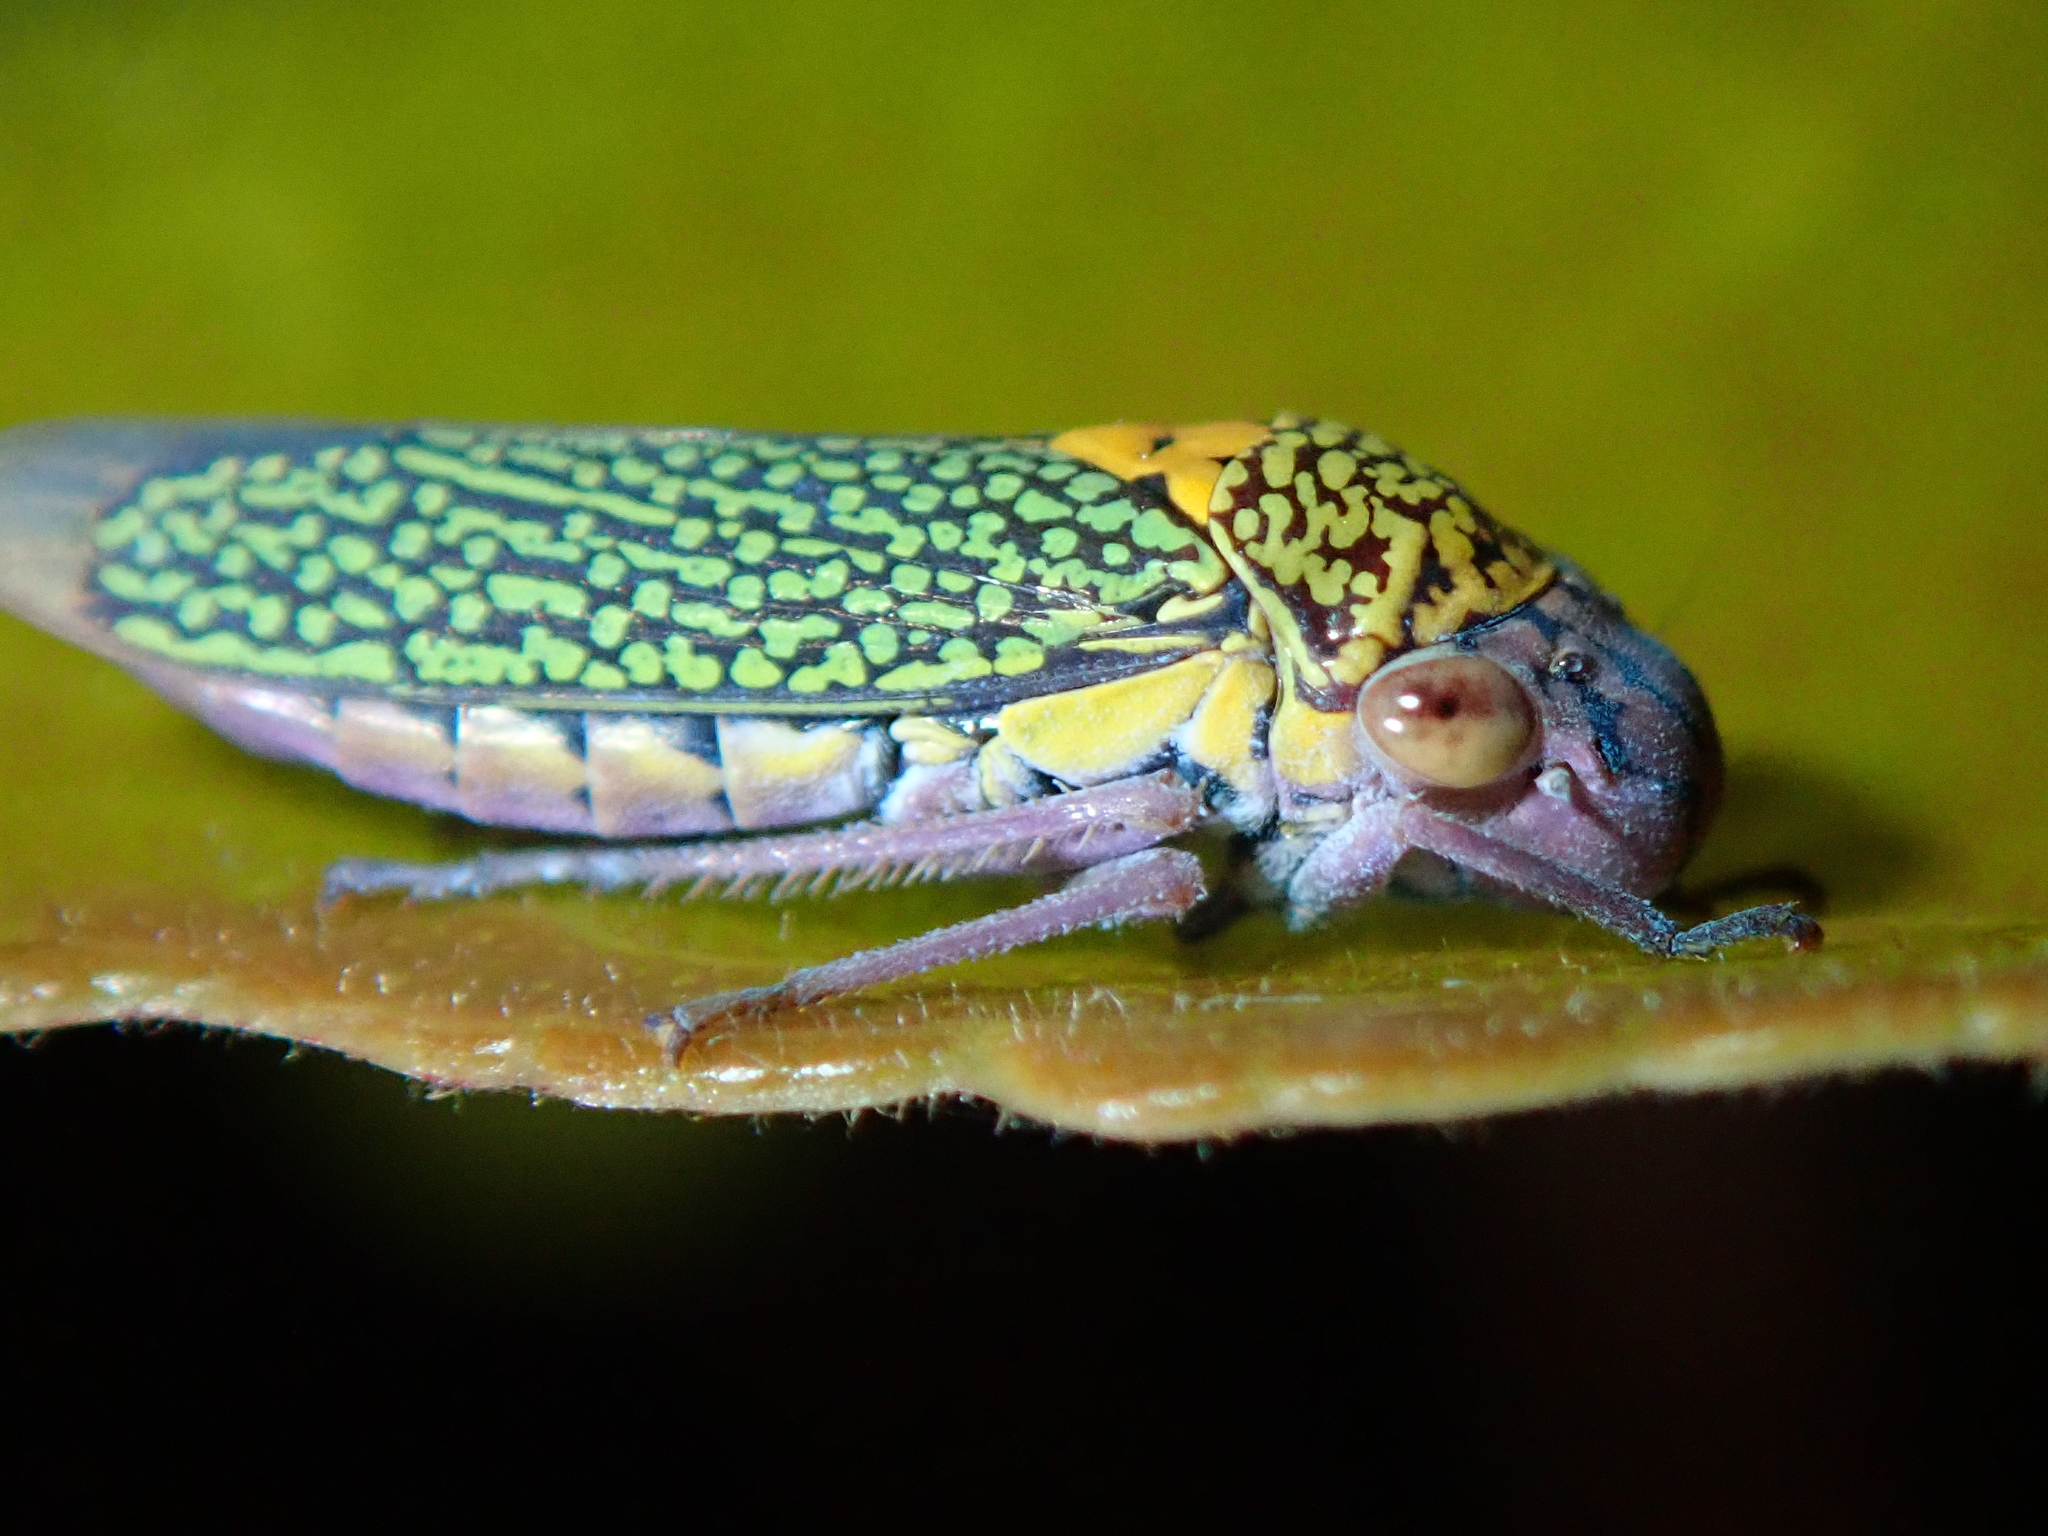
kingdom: Animalia
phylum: Arthropoda
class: Insecta
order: Hemiptera
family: Cicadellidae
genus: Molomea
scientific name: Molomea alternata
